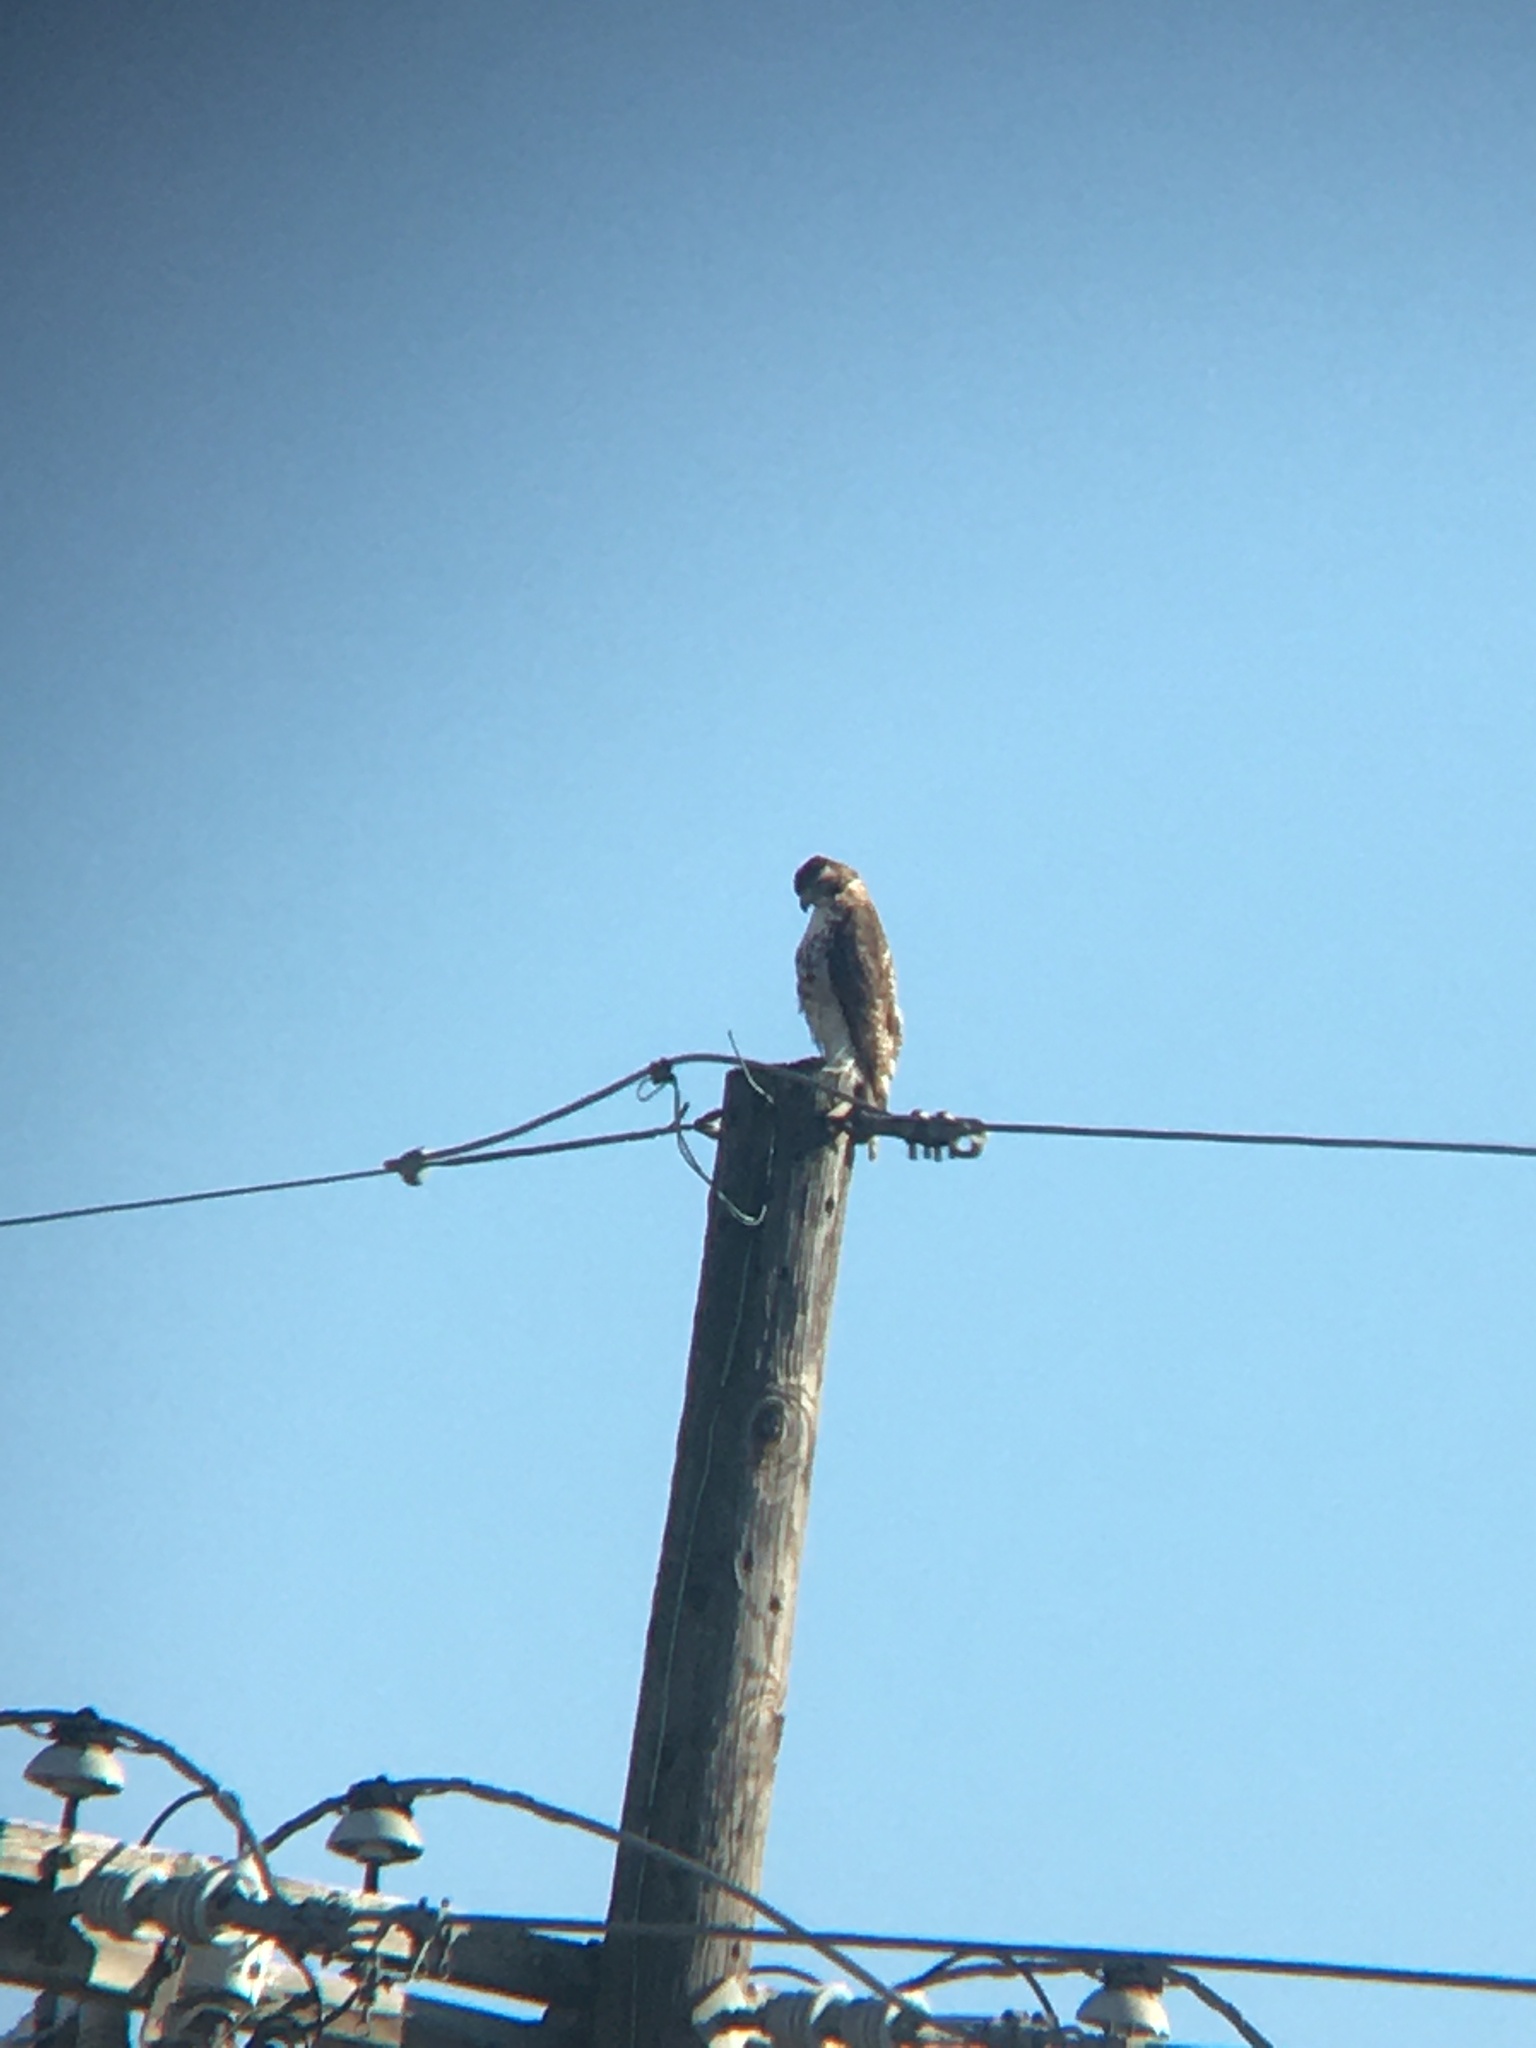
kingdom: Animalia
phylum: Chordata
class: Aves
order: Accipitriformes
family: Accipitridae
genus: Buteo
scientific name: Buteo jamaicensis
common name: Red-tailed hawk
